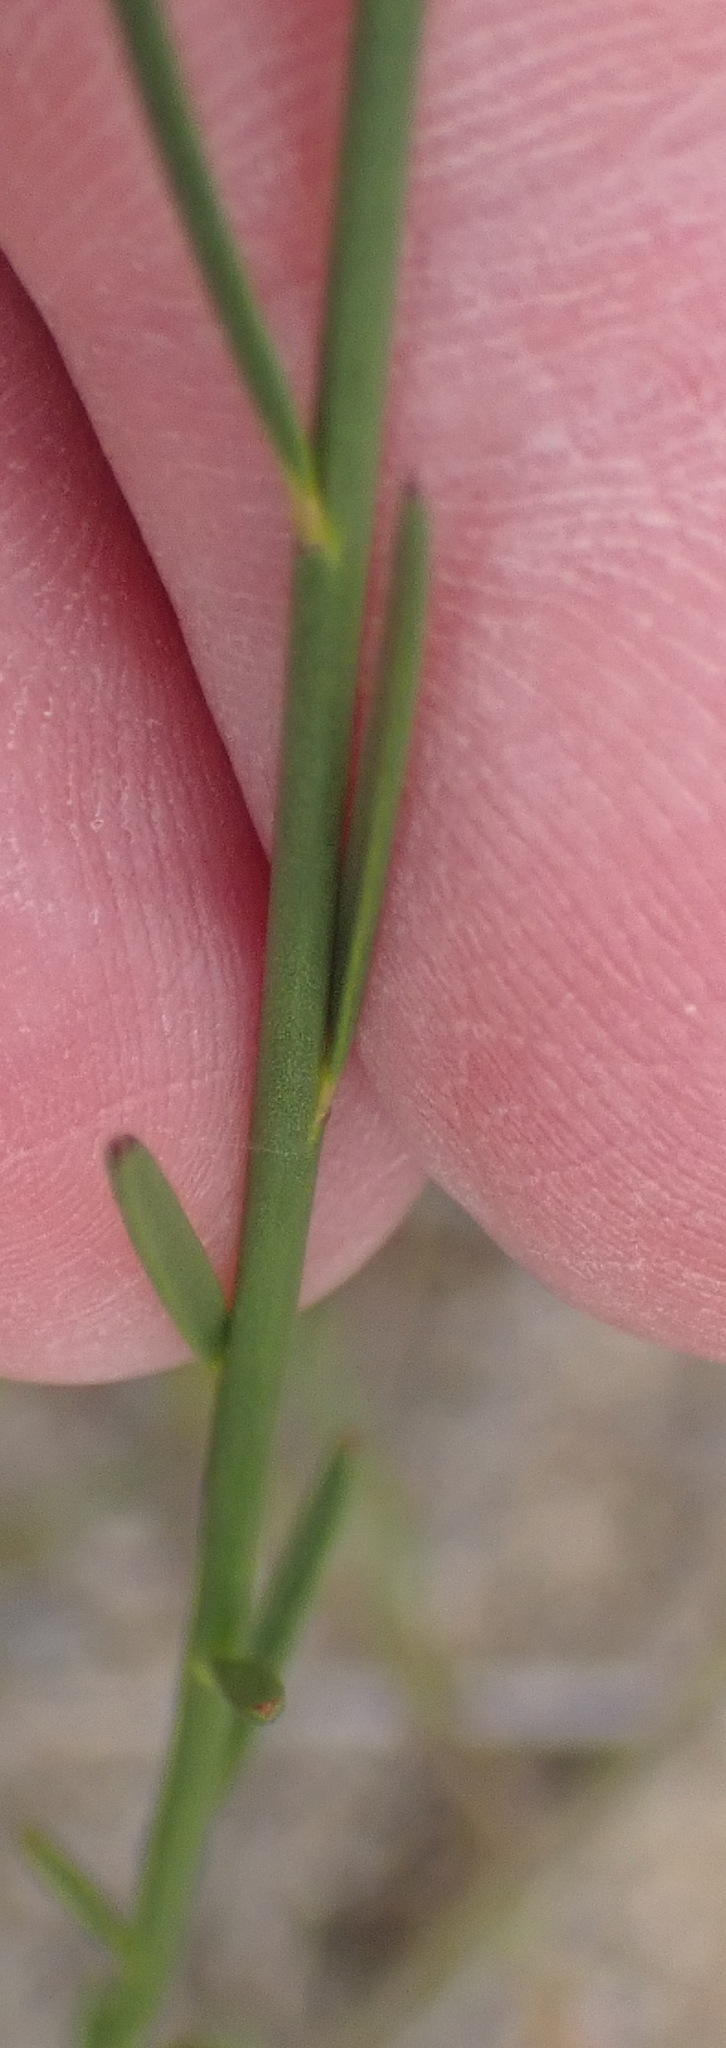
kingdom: Plantae
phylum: Tracheophyta
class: Magnoliopsida
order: Fabales
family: Polygalaceae
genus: Polygala
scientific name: Polygala garcini
